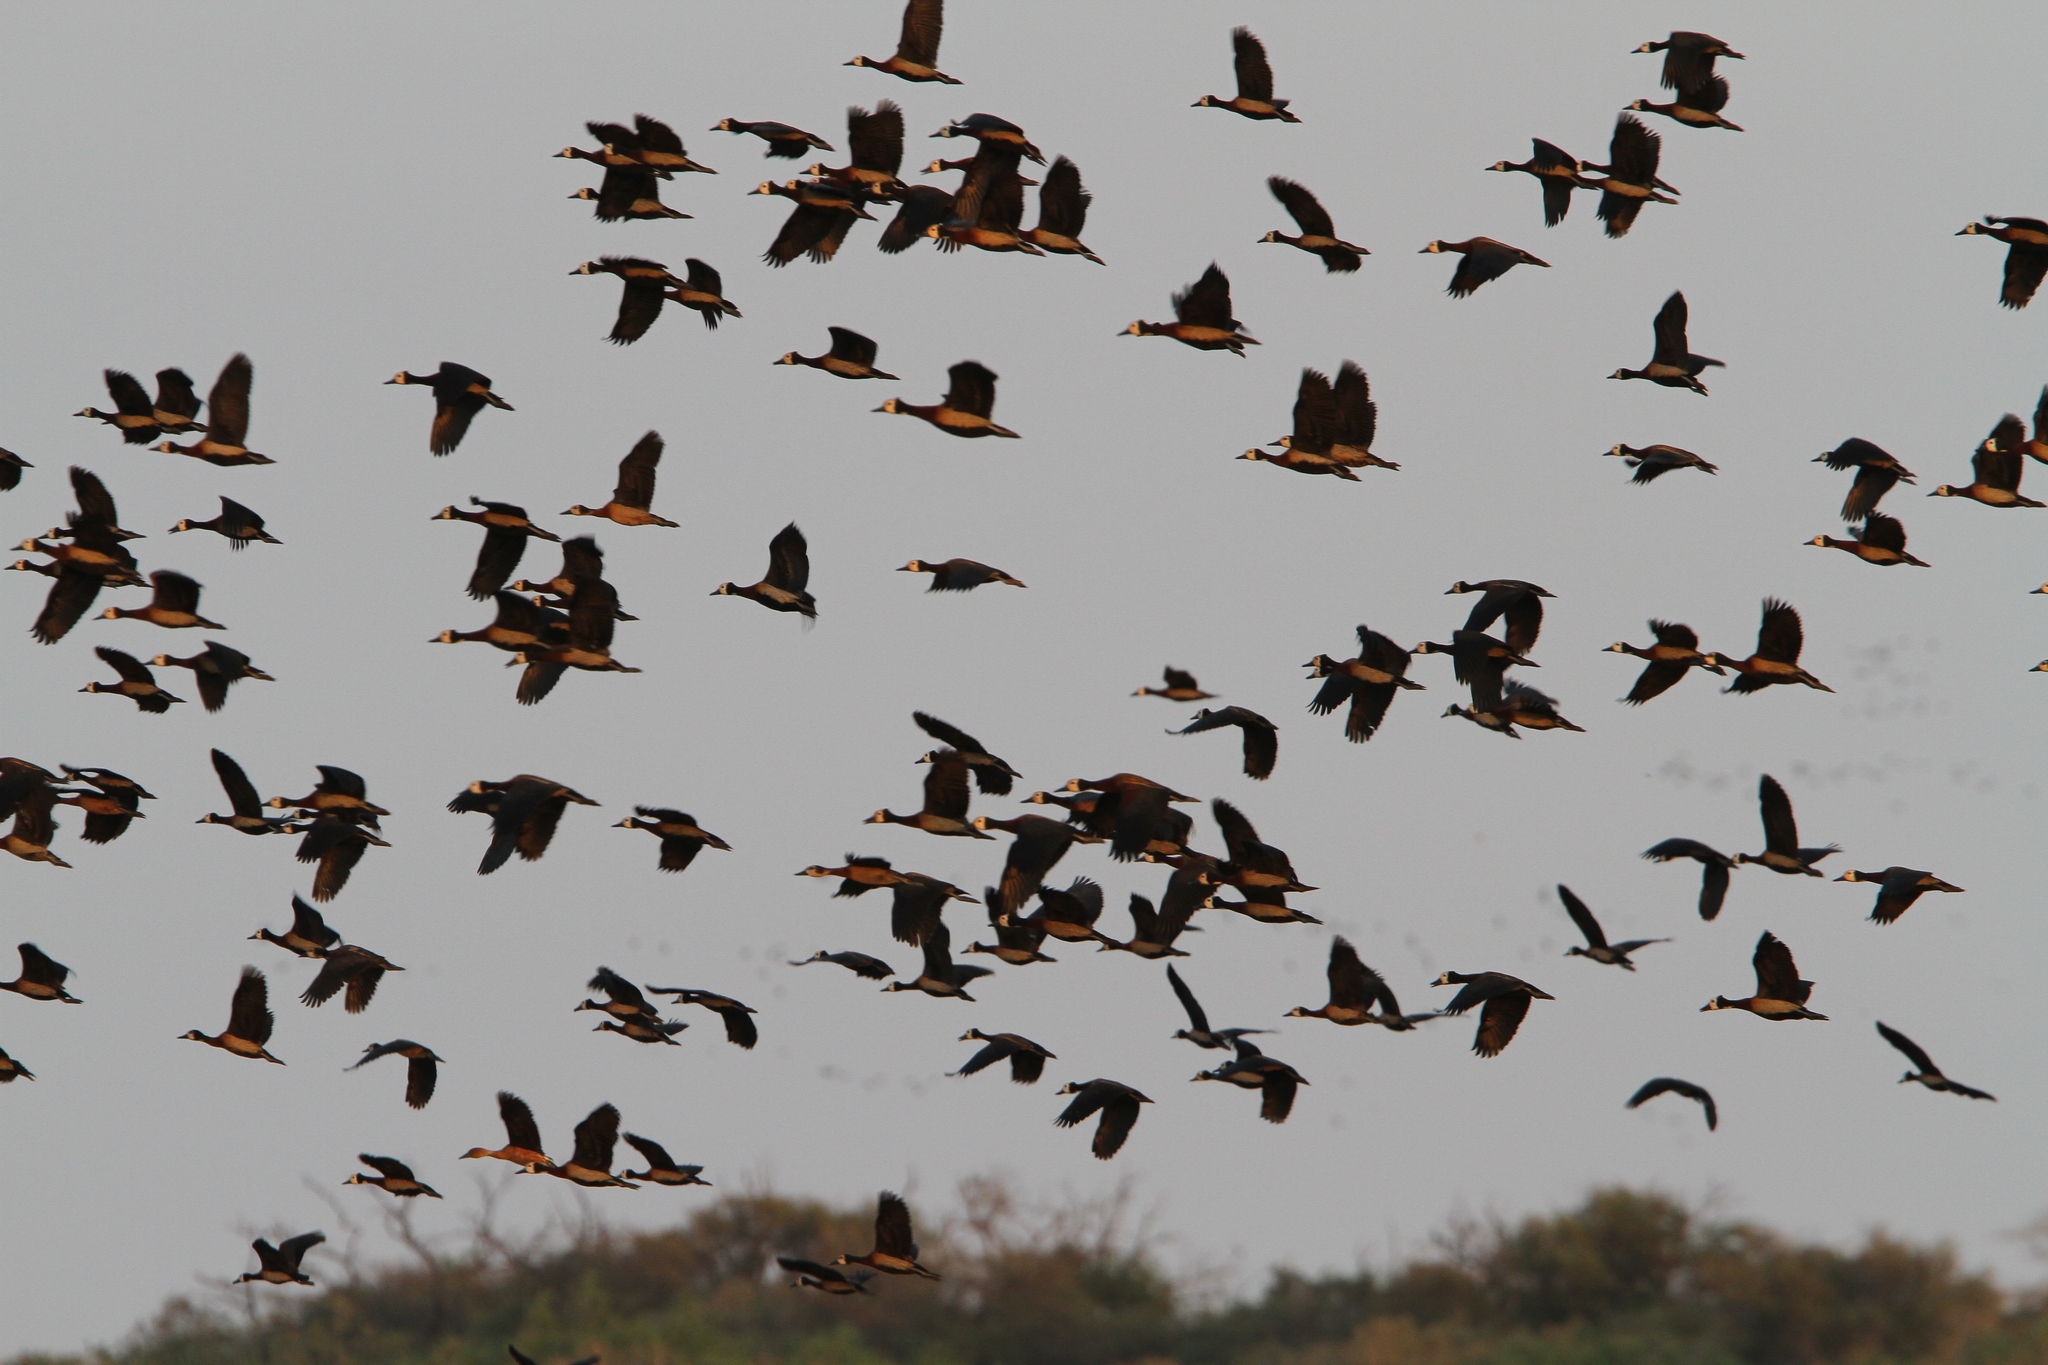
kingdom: Animalia
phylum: Chordata
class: Aves
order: Anseriformes
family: Anatidae
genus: Dendrocygna
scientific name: Dendrocygna viduata
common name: White-faced whistling duck
